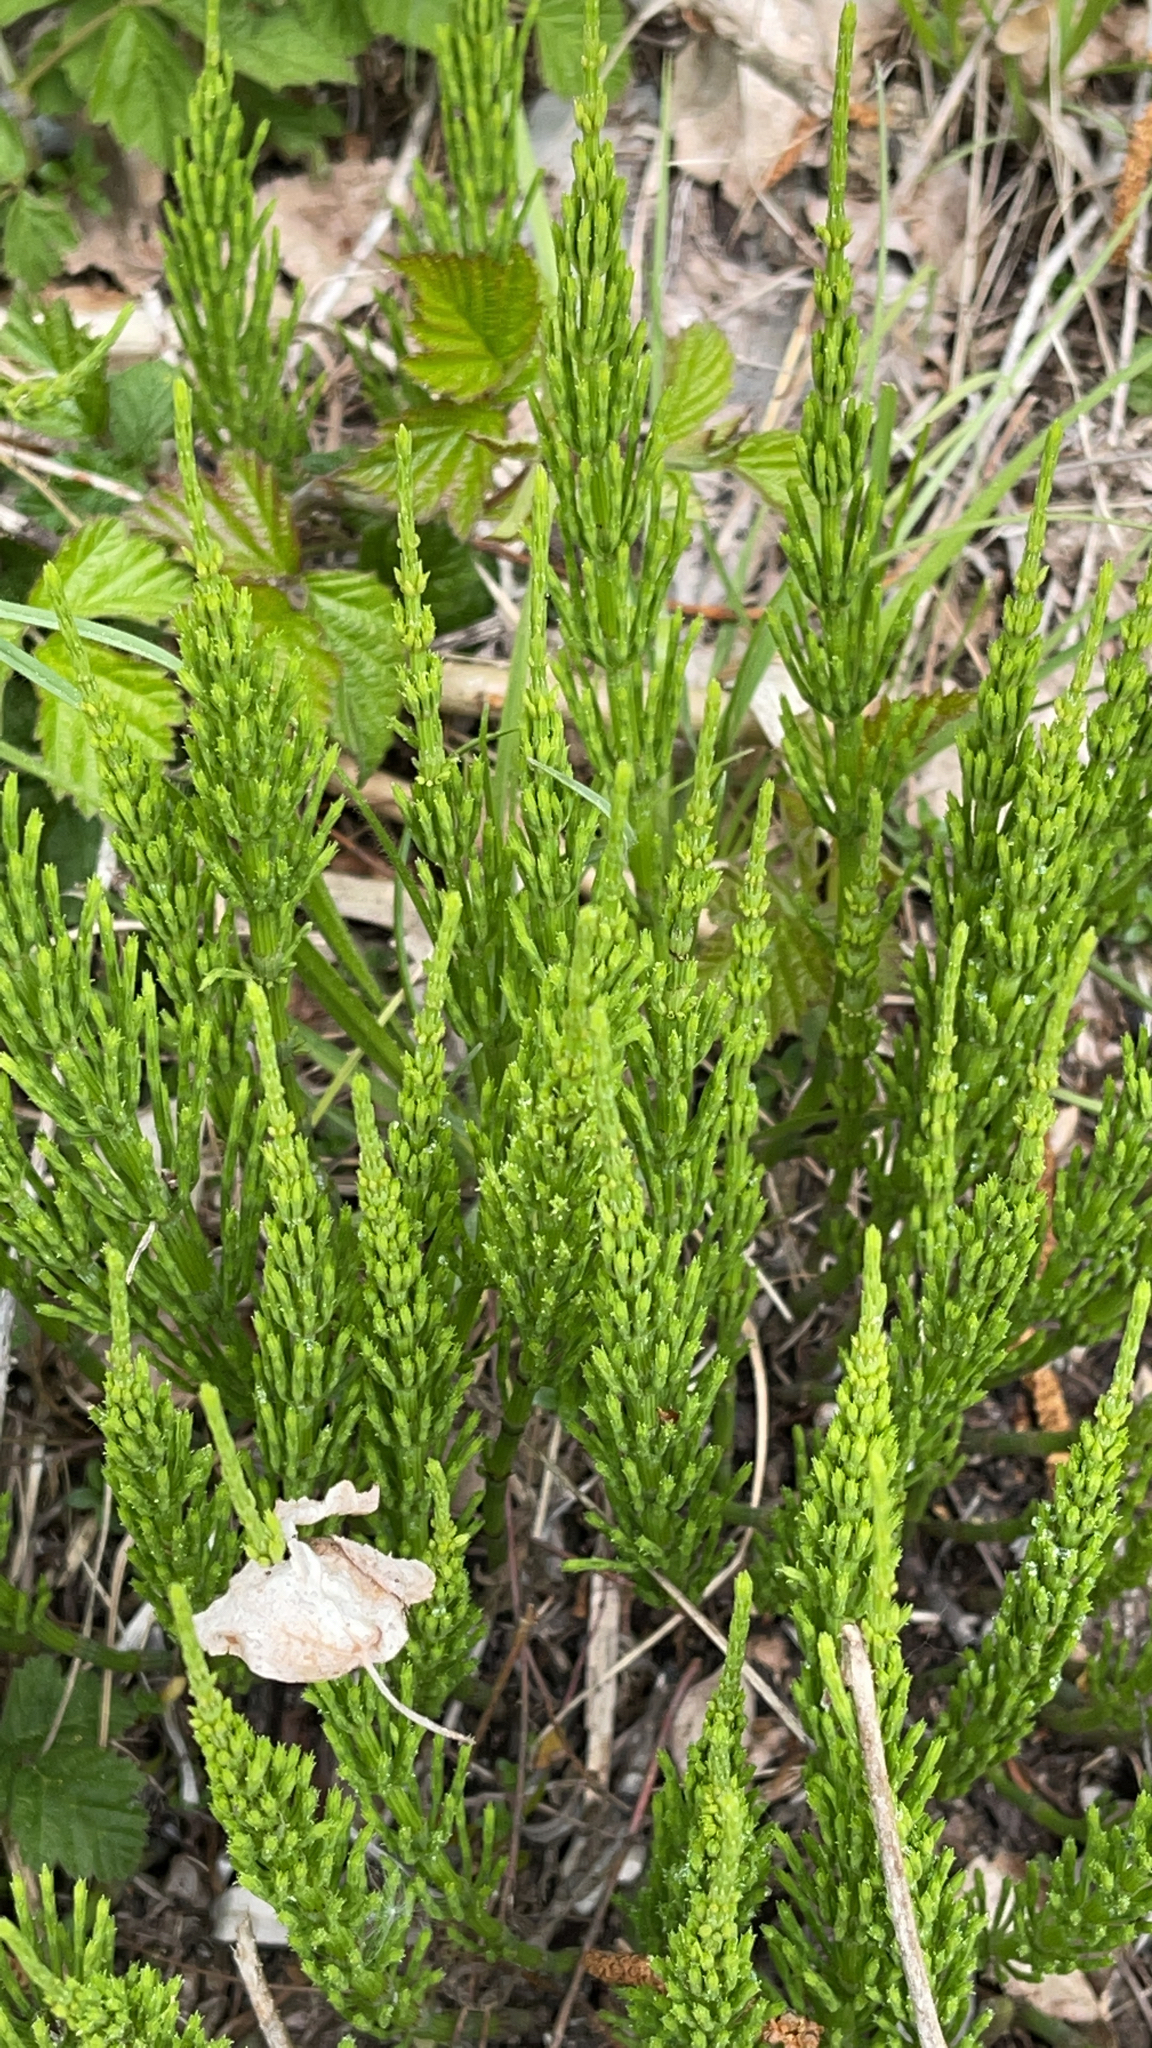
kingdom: Plantae
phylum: Tracheophyta
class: Polypodiopsida
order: Equisetales
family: Equisetaceae
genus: Equisetum
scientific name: Equisetum arvense
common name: Field horsetail
